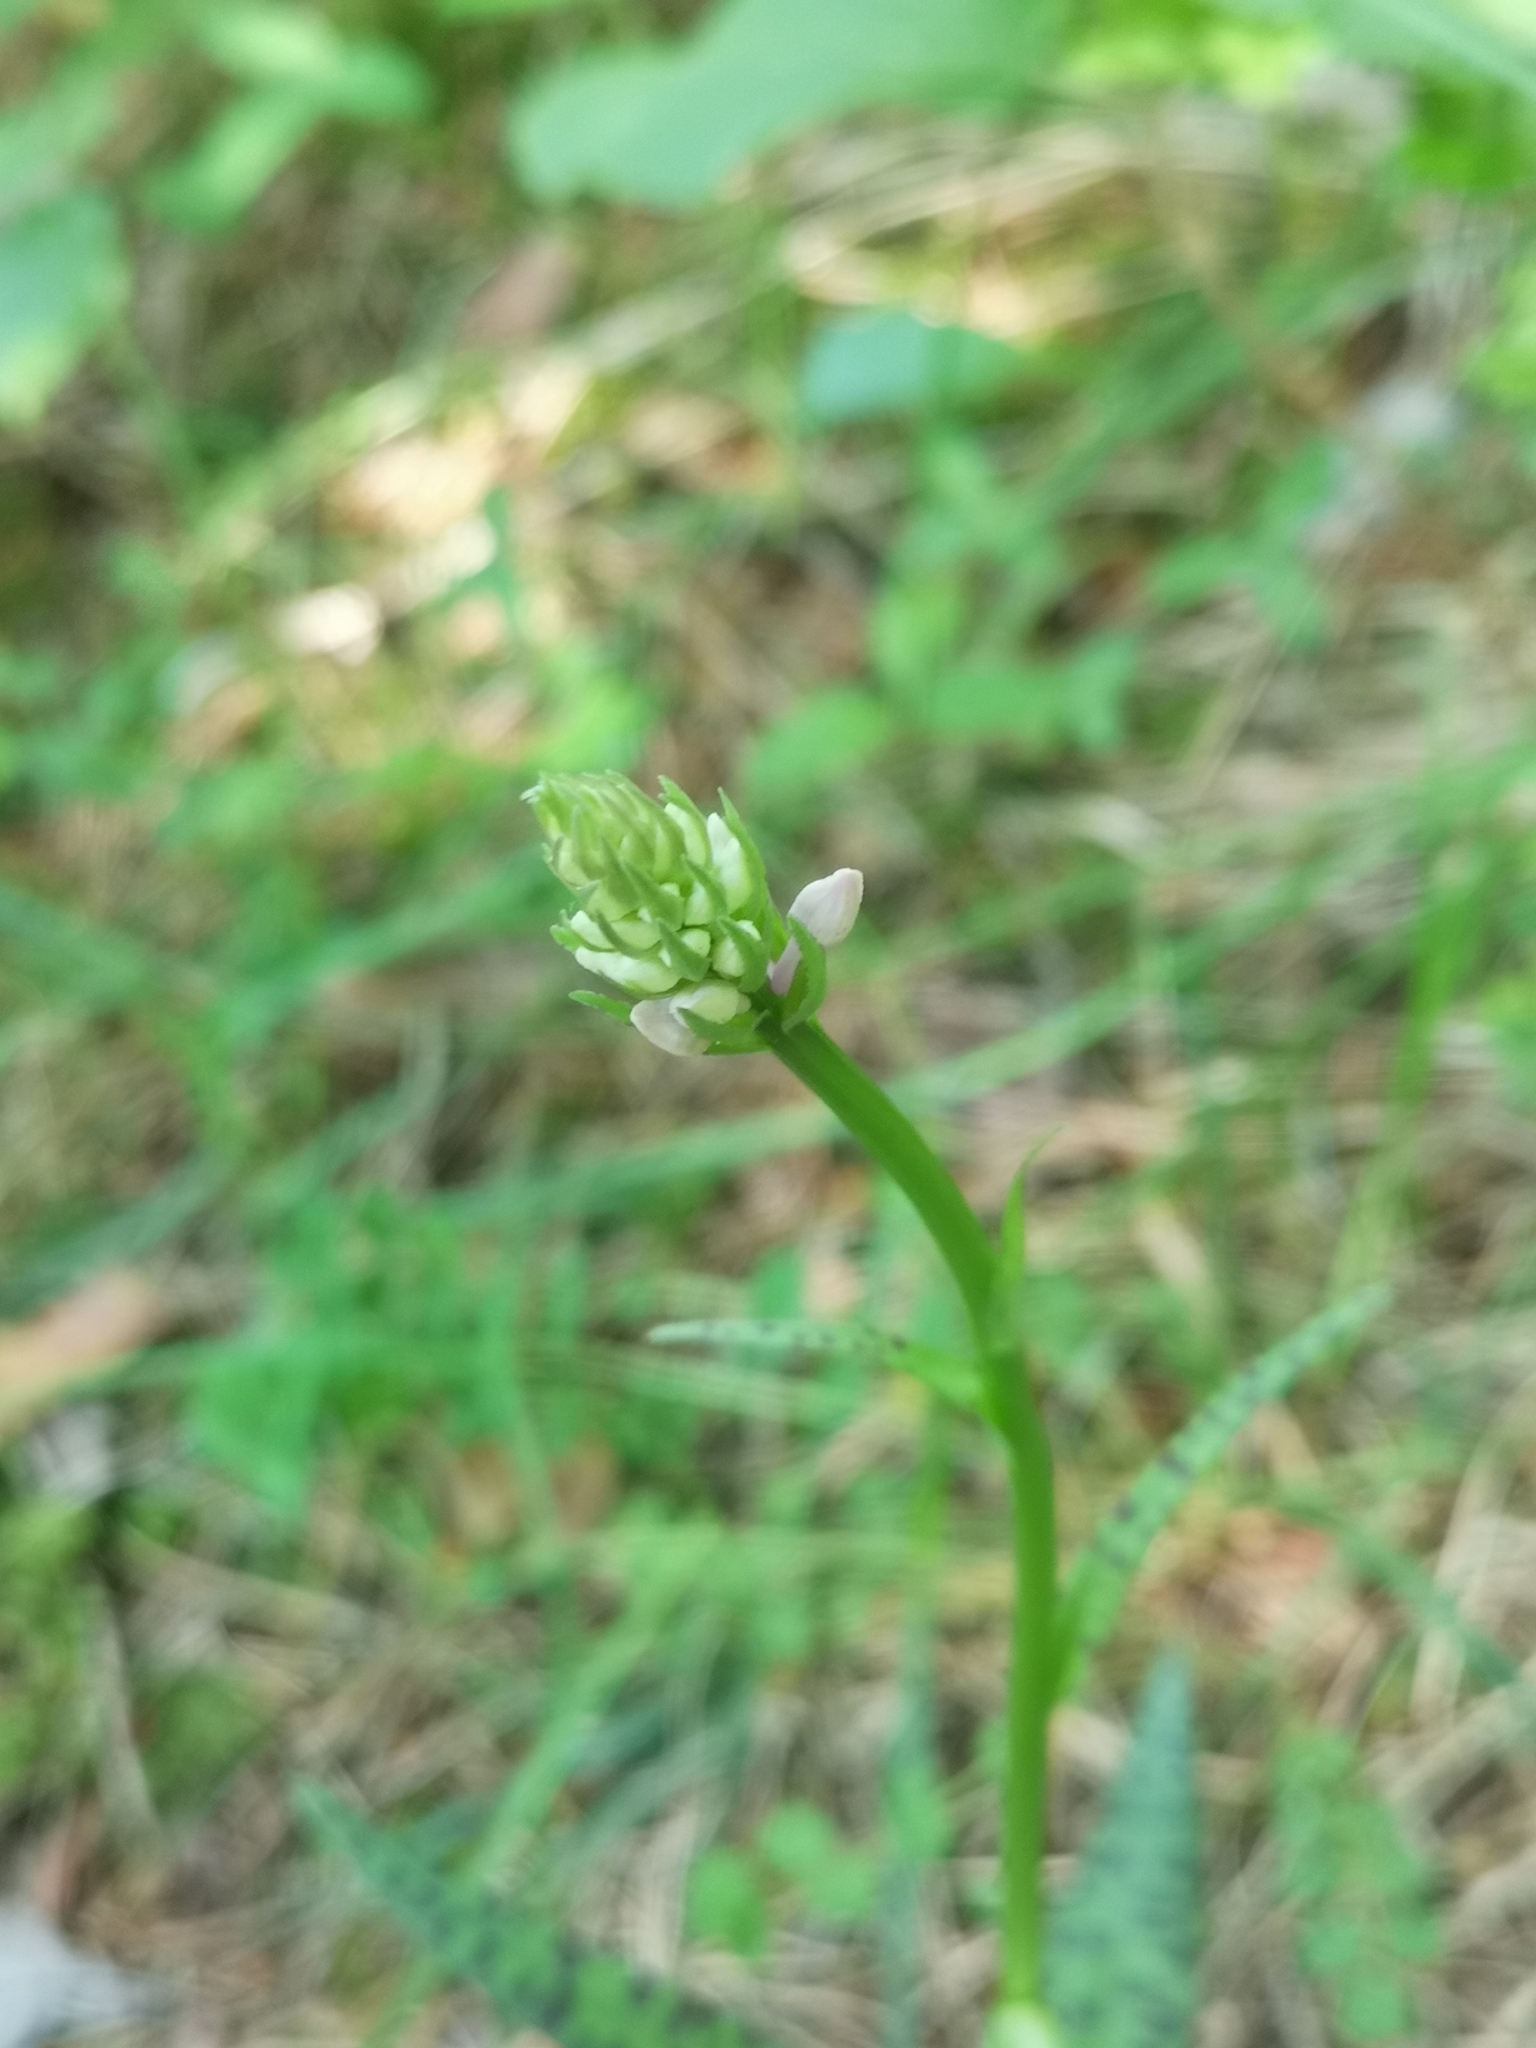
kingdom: Plantae
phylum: Tracheophyta
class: Liliopsida
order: Asparagales
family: Orchidaceae
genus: Dactylorhiza
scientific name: Dactylorhiza maculata
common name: Heath spotted-orchid
